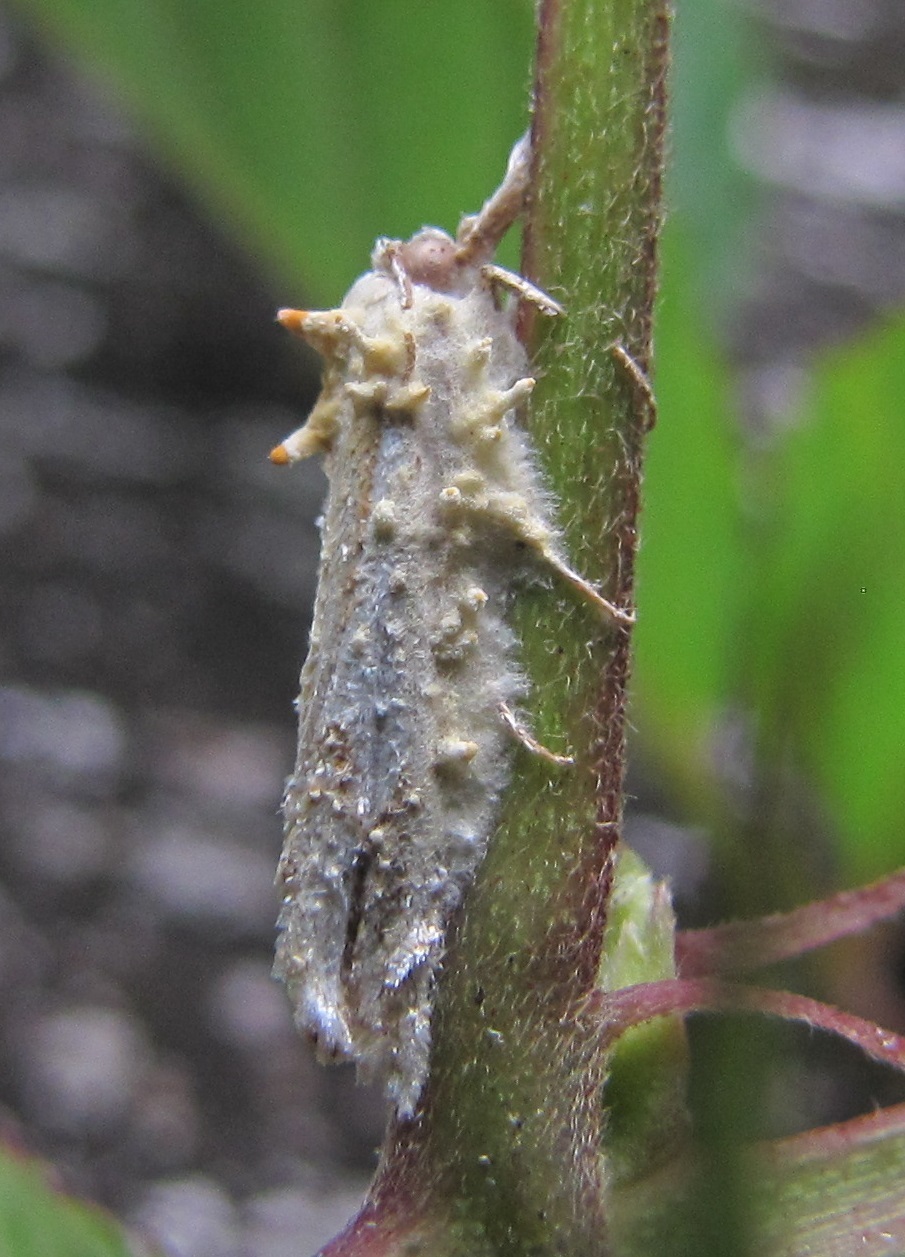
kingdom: Fungi
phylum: Ascomycota
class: Sordariomycetes
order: Hypocreales
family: Cordycipitaceae
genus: Akanthomyces
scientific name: Akanthomyces aculeatus
